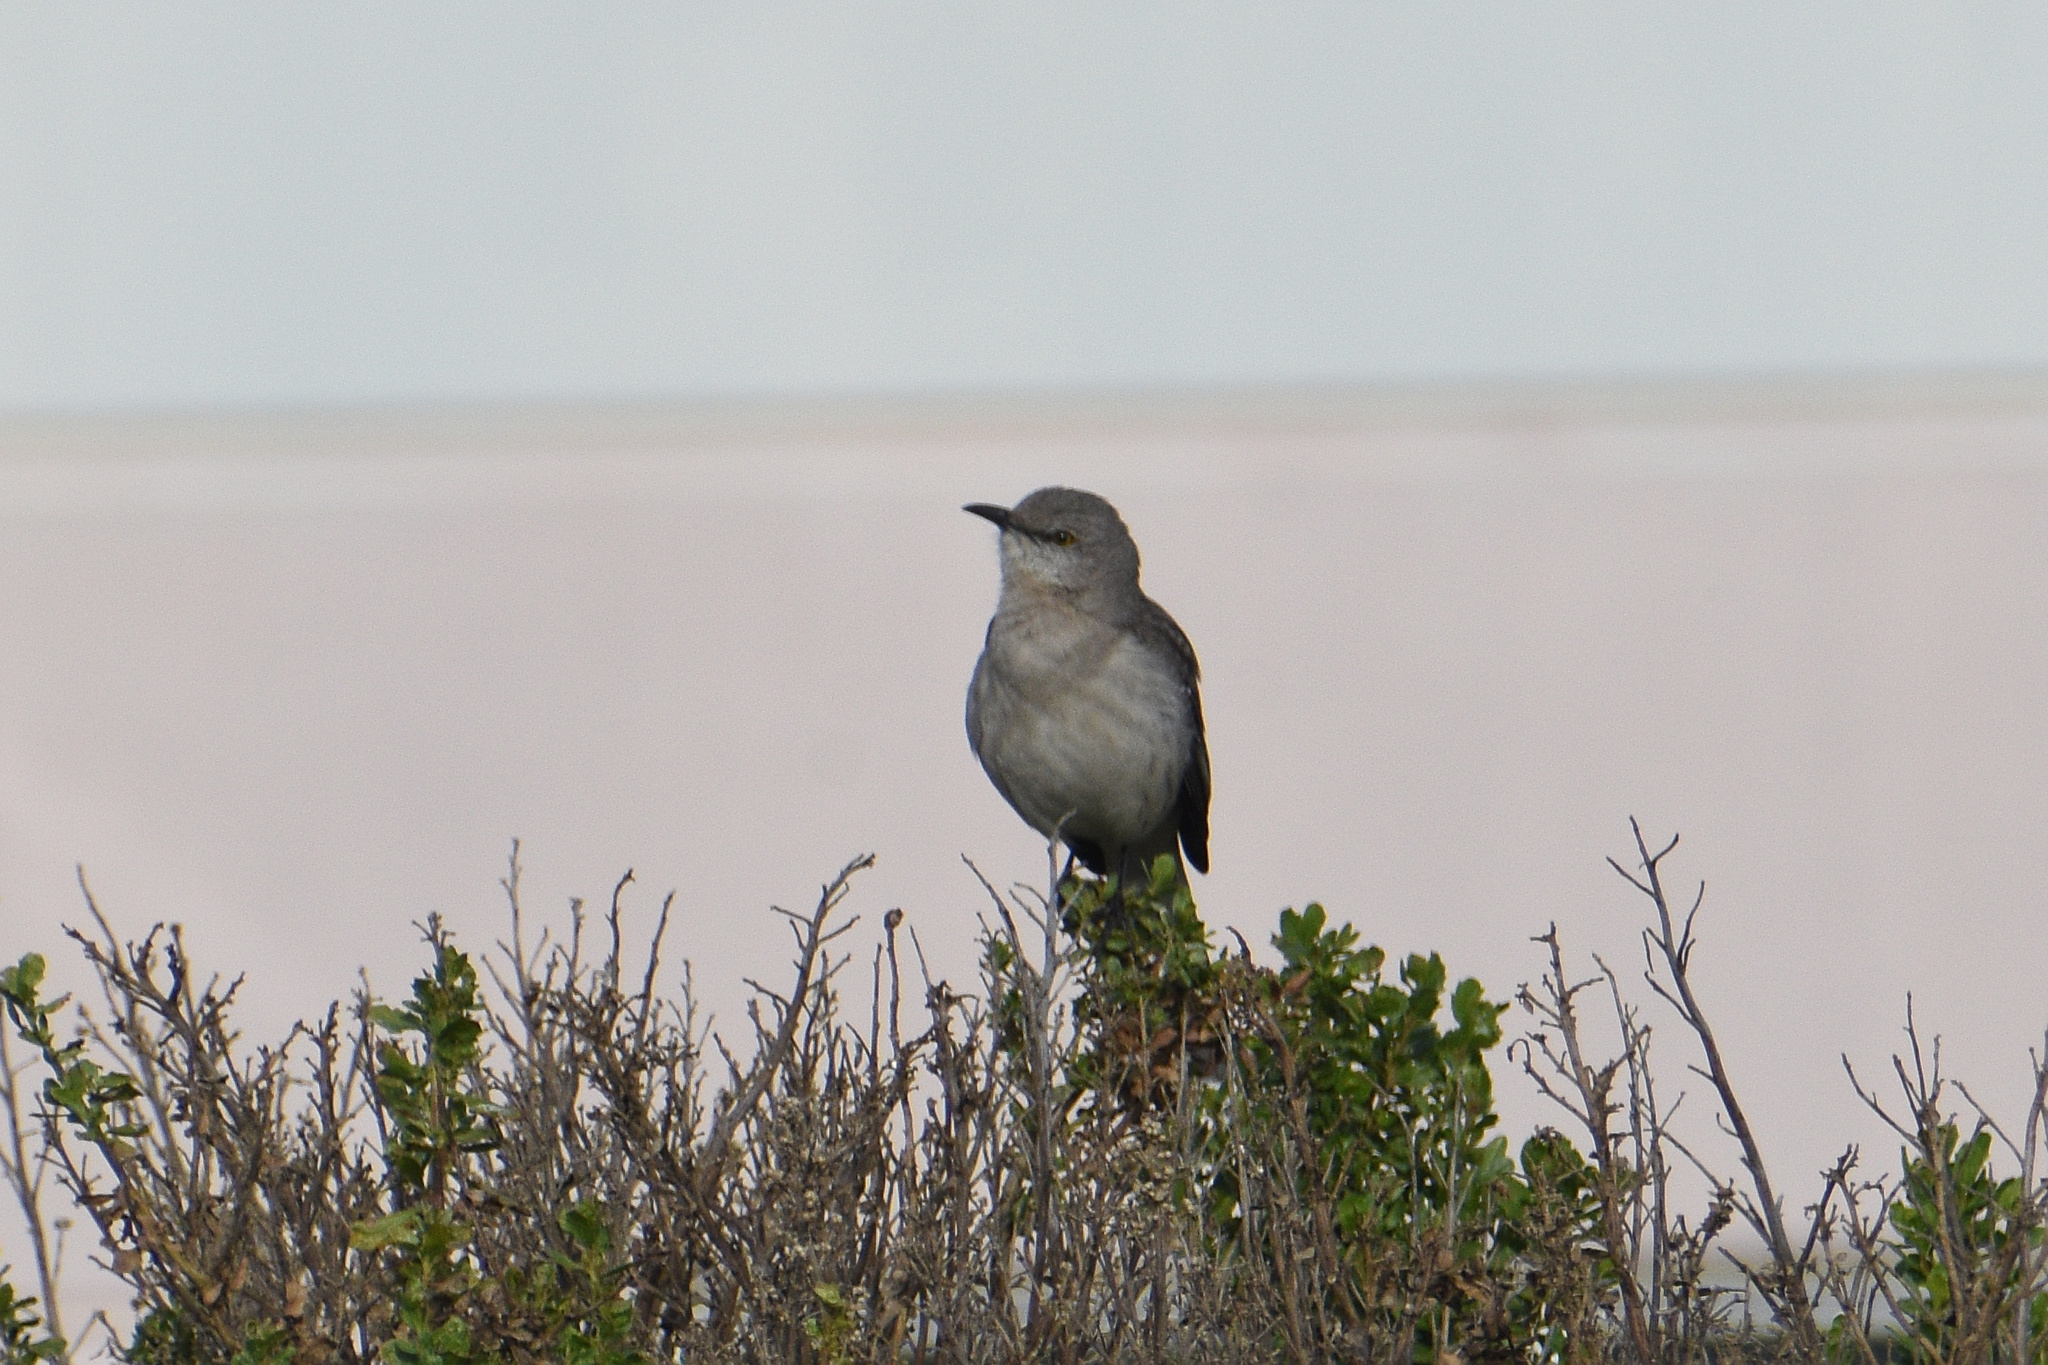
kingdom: Animalia
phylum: Chordata
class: Aves
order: Passeriformes
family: Mimidae
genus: Mimus
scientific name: Mimus polyglottos
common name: Northern mockingbird
